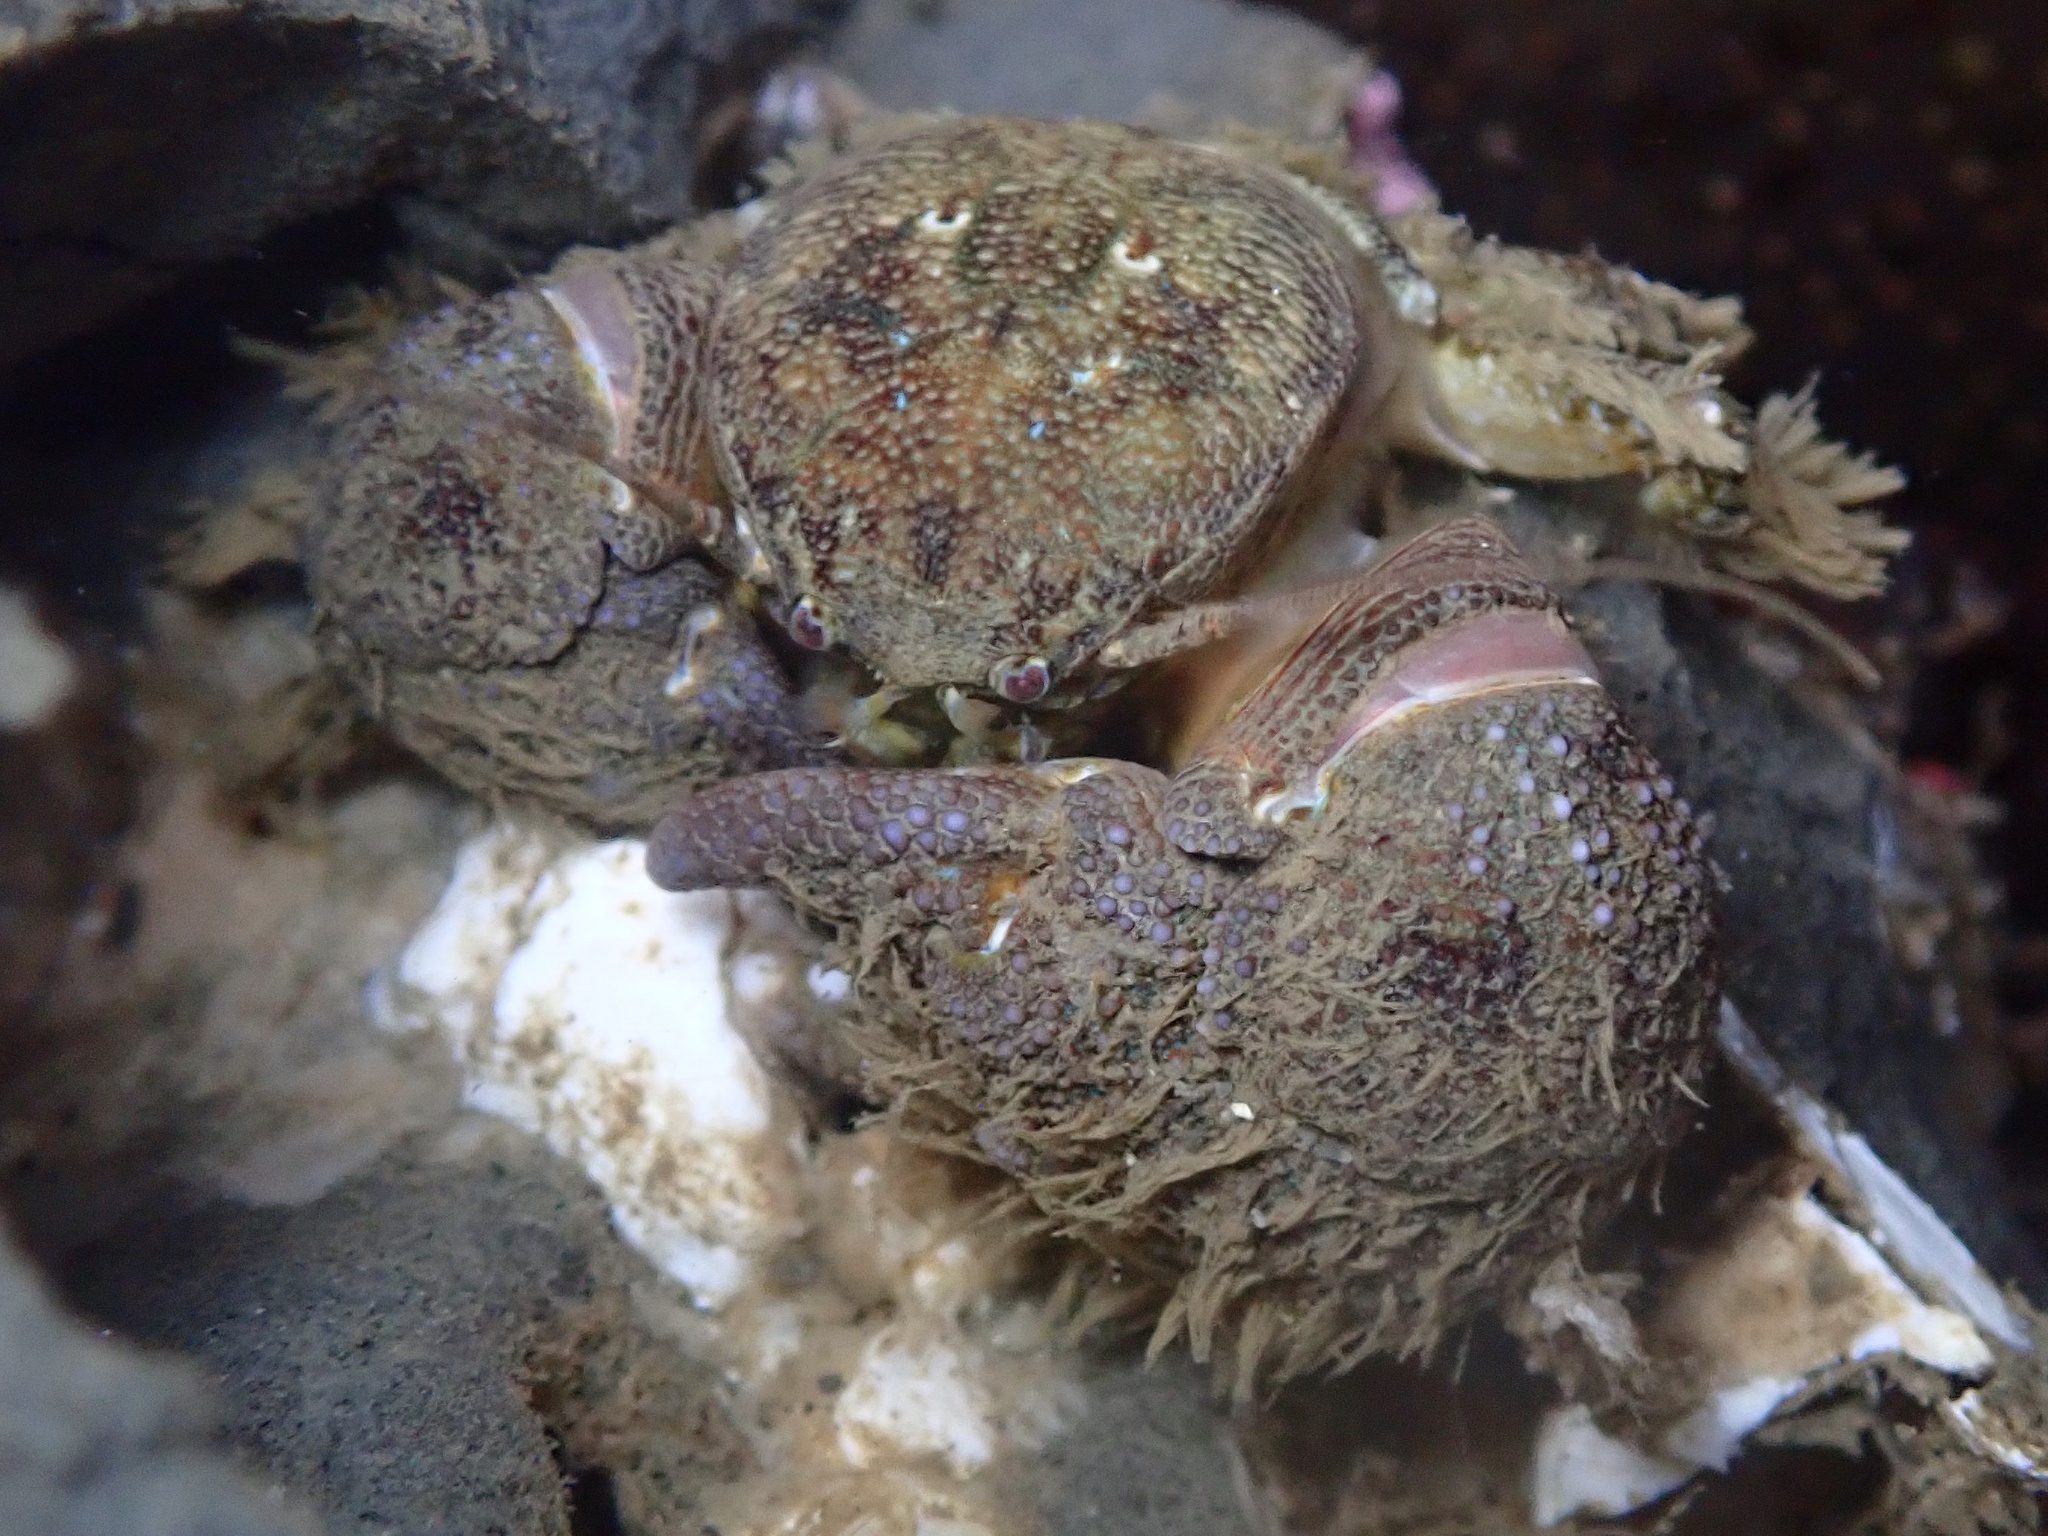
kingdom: Animalia
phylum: Arthropoda
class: Malacostraca
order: Decapoda
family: Porcellanidae
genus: Pachycheles
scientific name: Pachycheles rudis
